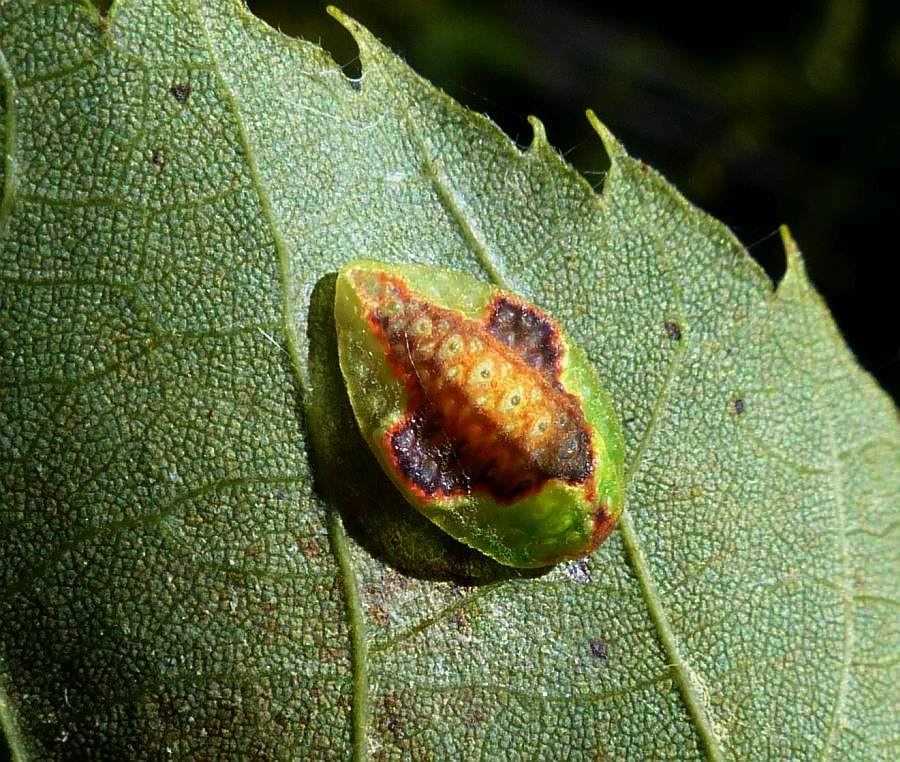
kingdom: Animalia
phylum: Arthropoda
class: Insecta
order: Lepidoptera
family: Limacodidae
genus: Tortricidia
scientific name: Tortricidia pallida
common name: Red-crossed button slug moth
